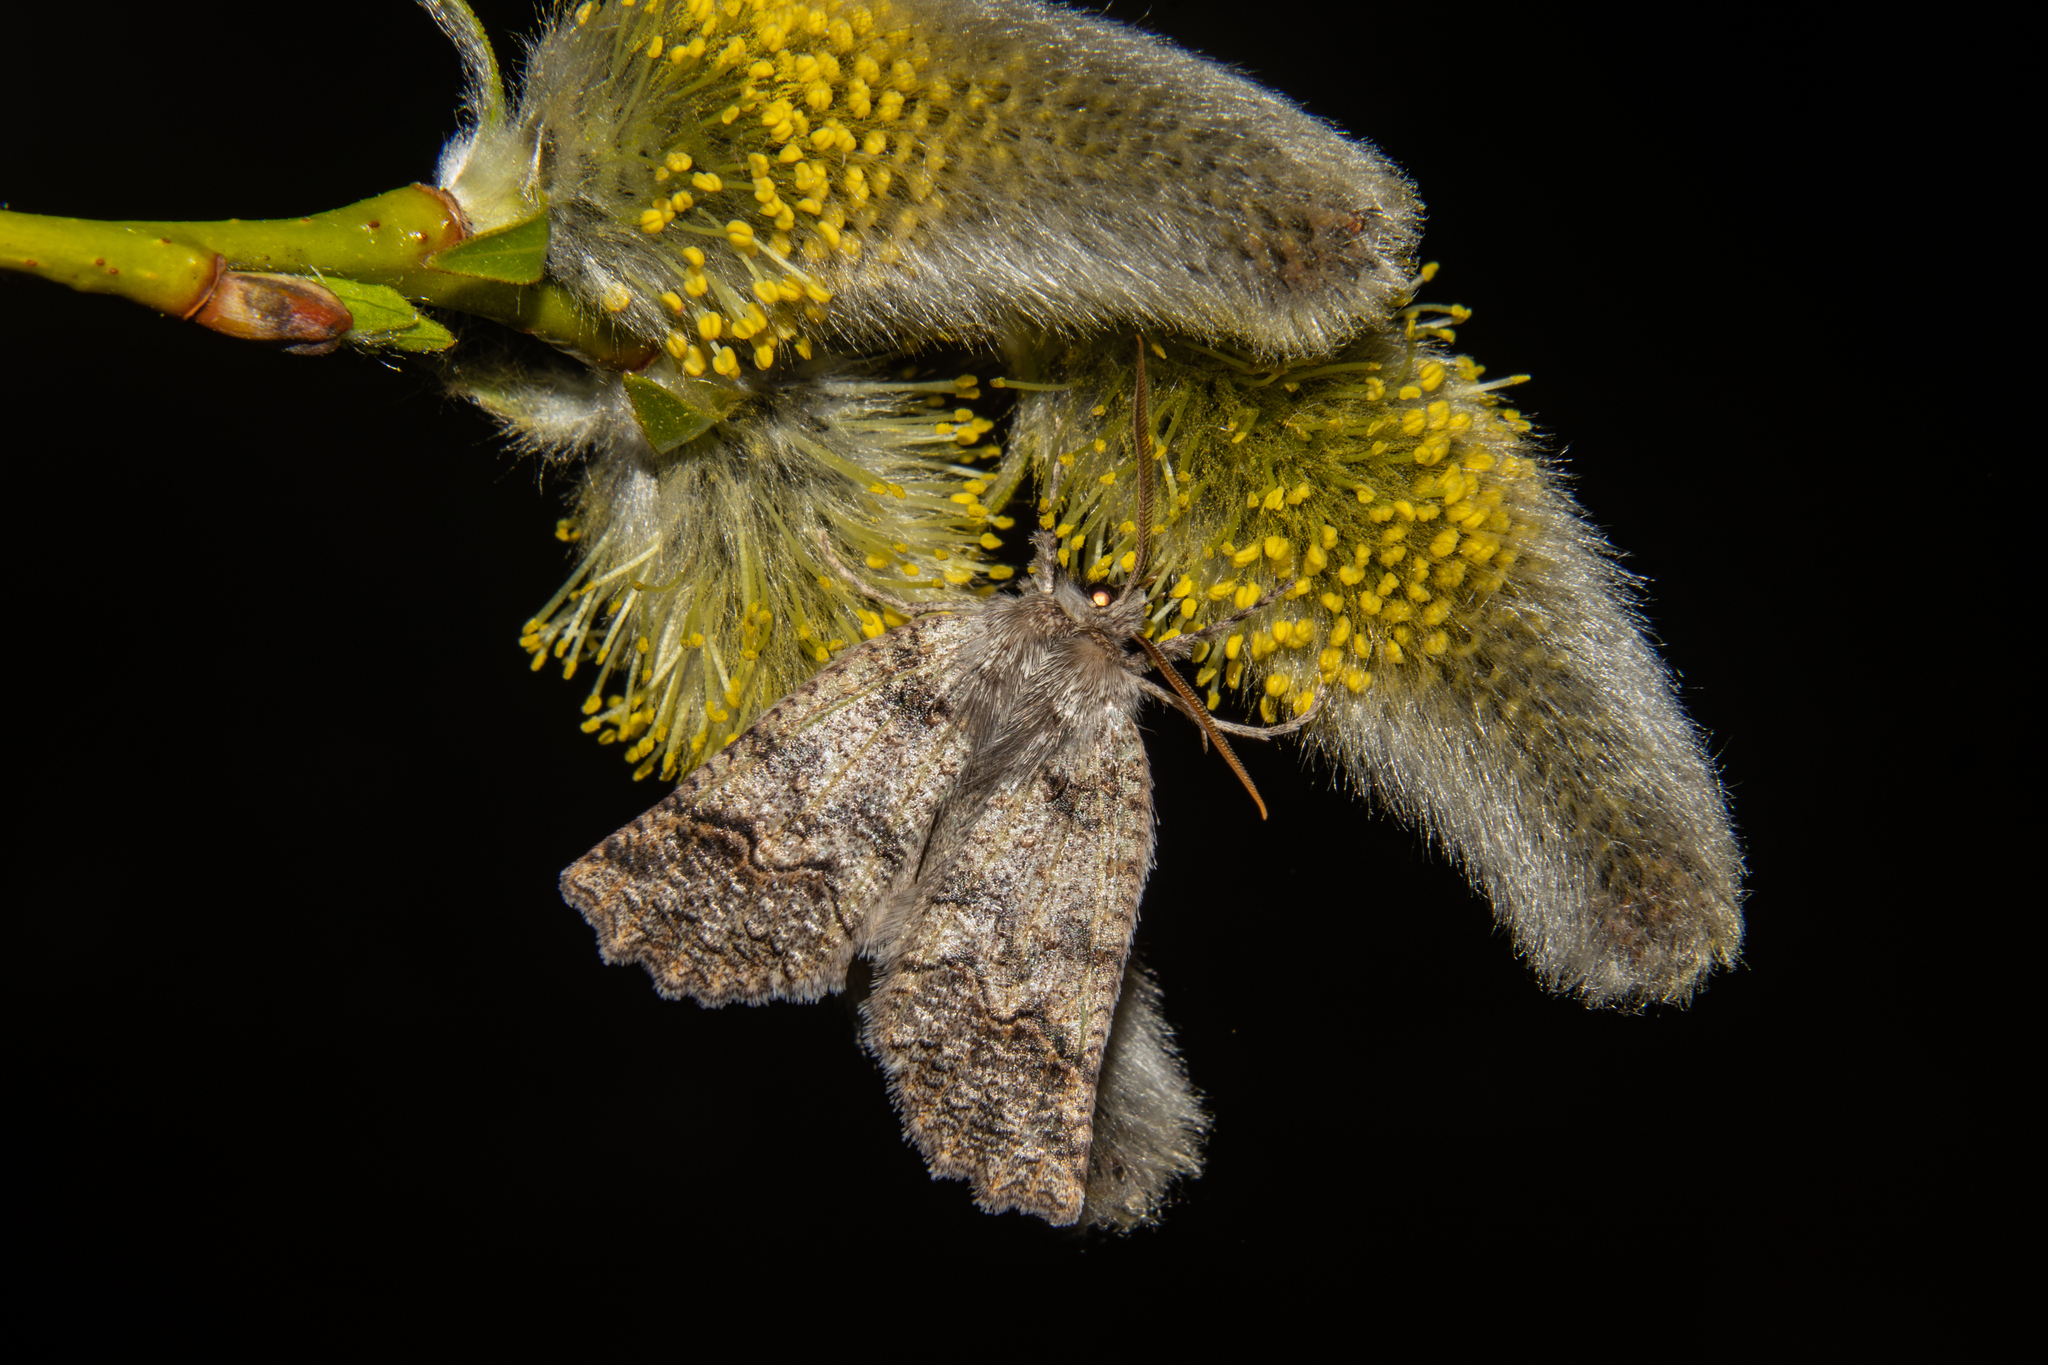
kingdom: Animalia
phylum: Arthropoda
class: Insecta
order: Lepidoptera
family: Geometridae
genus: Declana
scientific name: Declana floccosa
